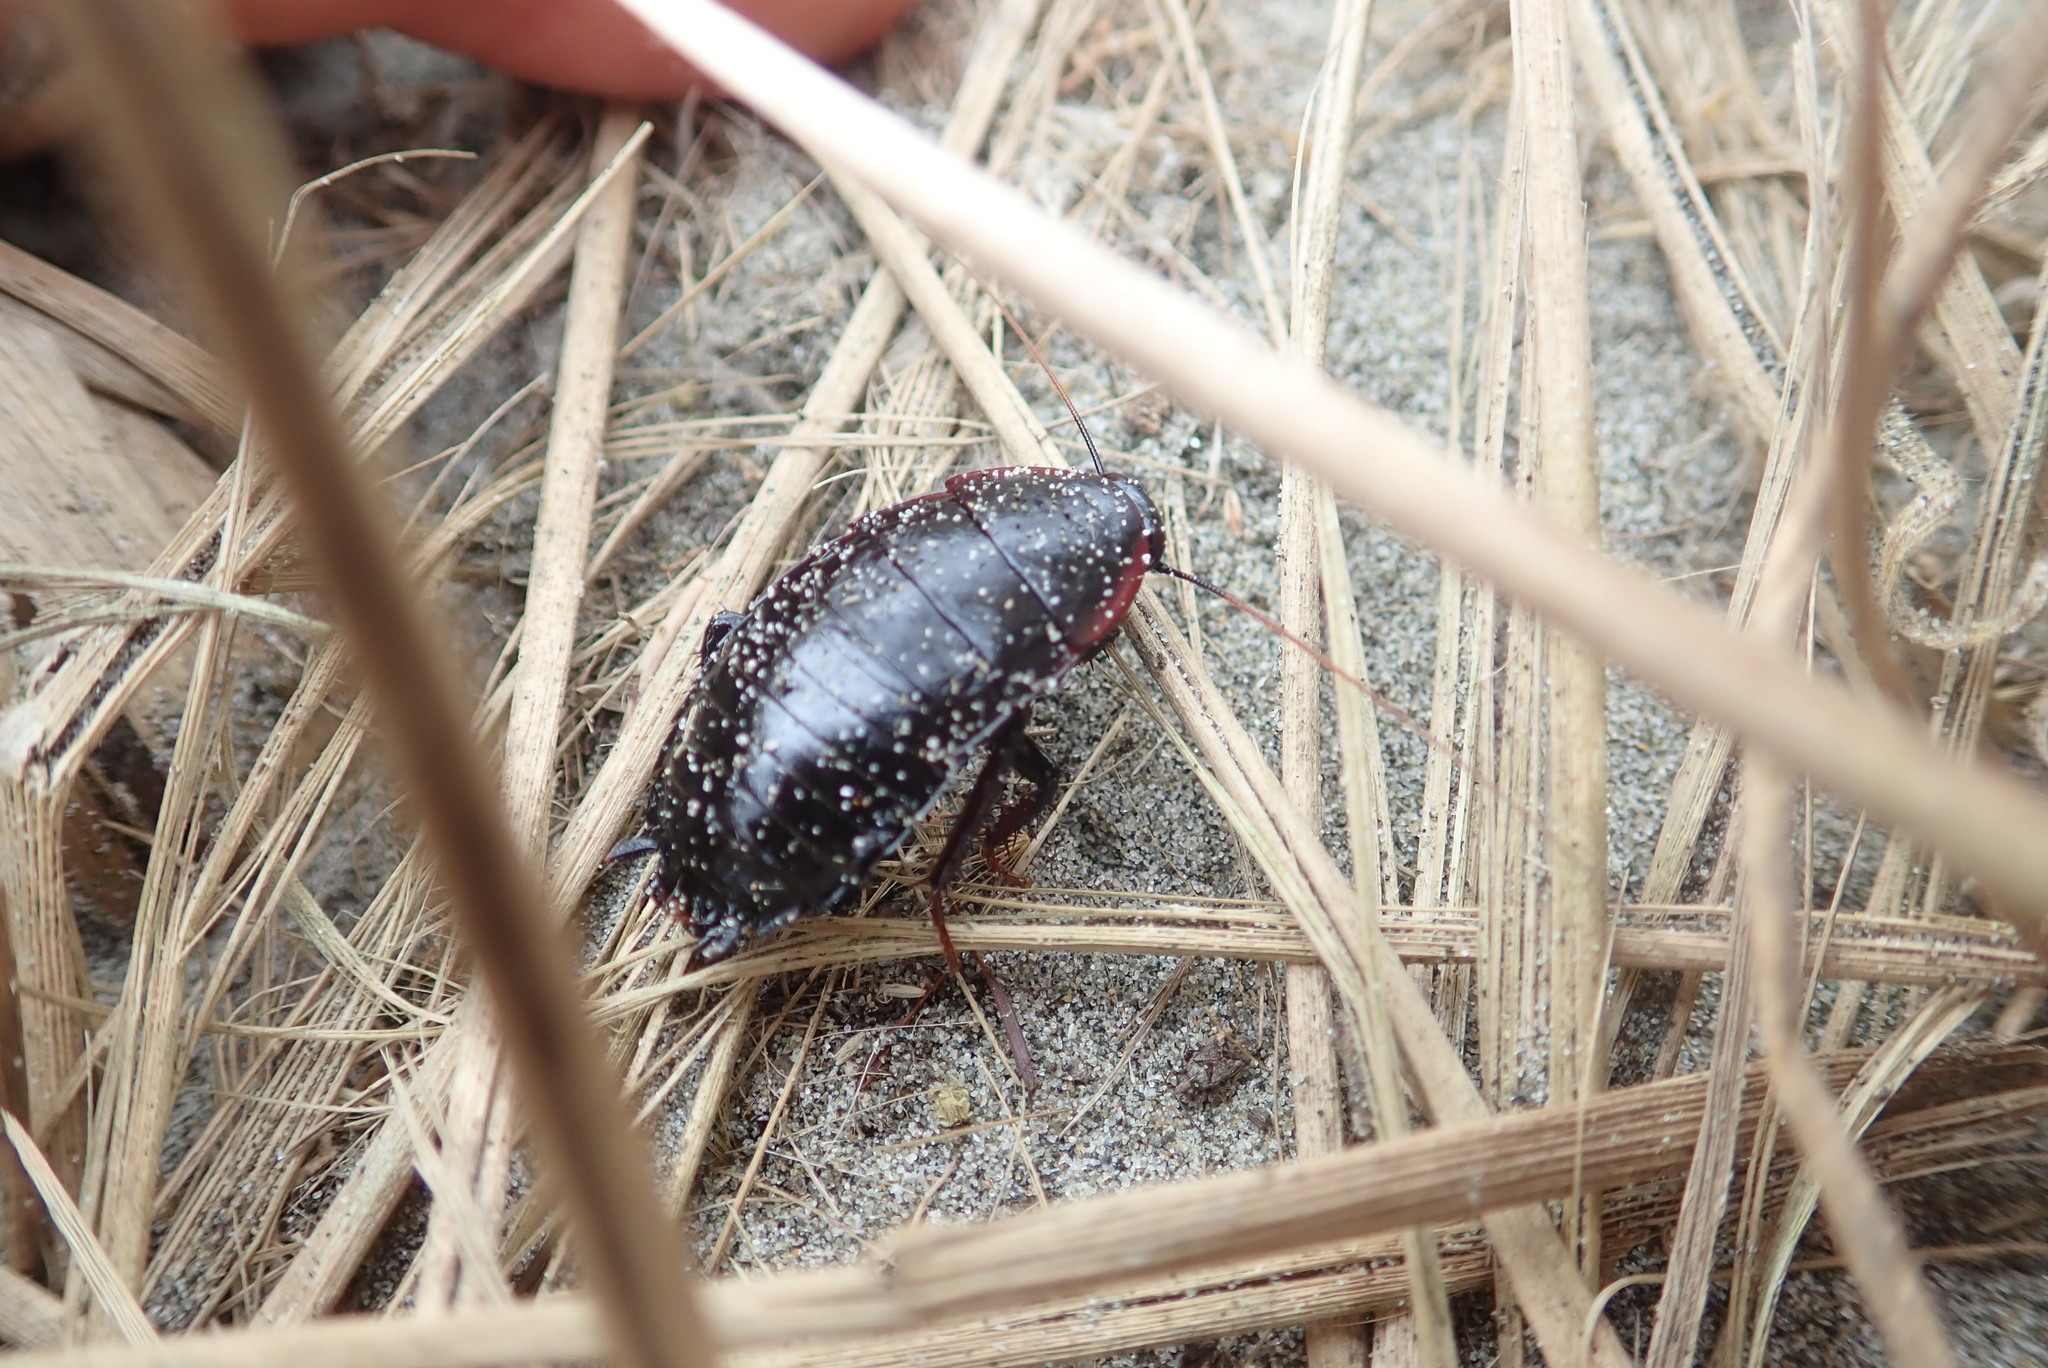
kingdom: Animalia
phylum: Arthropoda
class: Insecta
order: Blattodea
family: Blattidae
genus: Maoriblatta
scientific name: Maoriblatta novaeseelandiae
